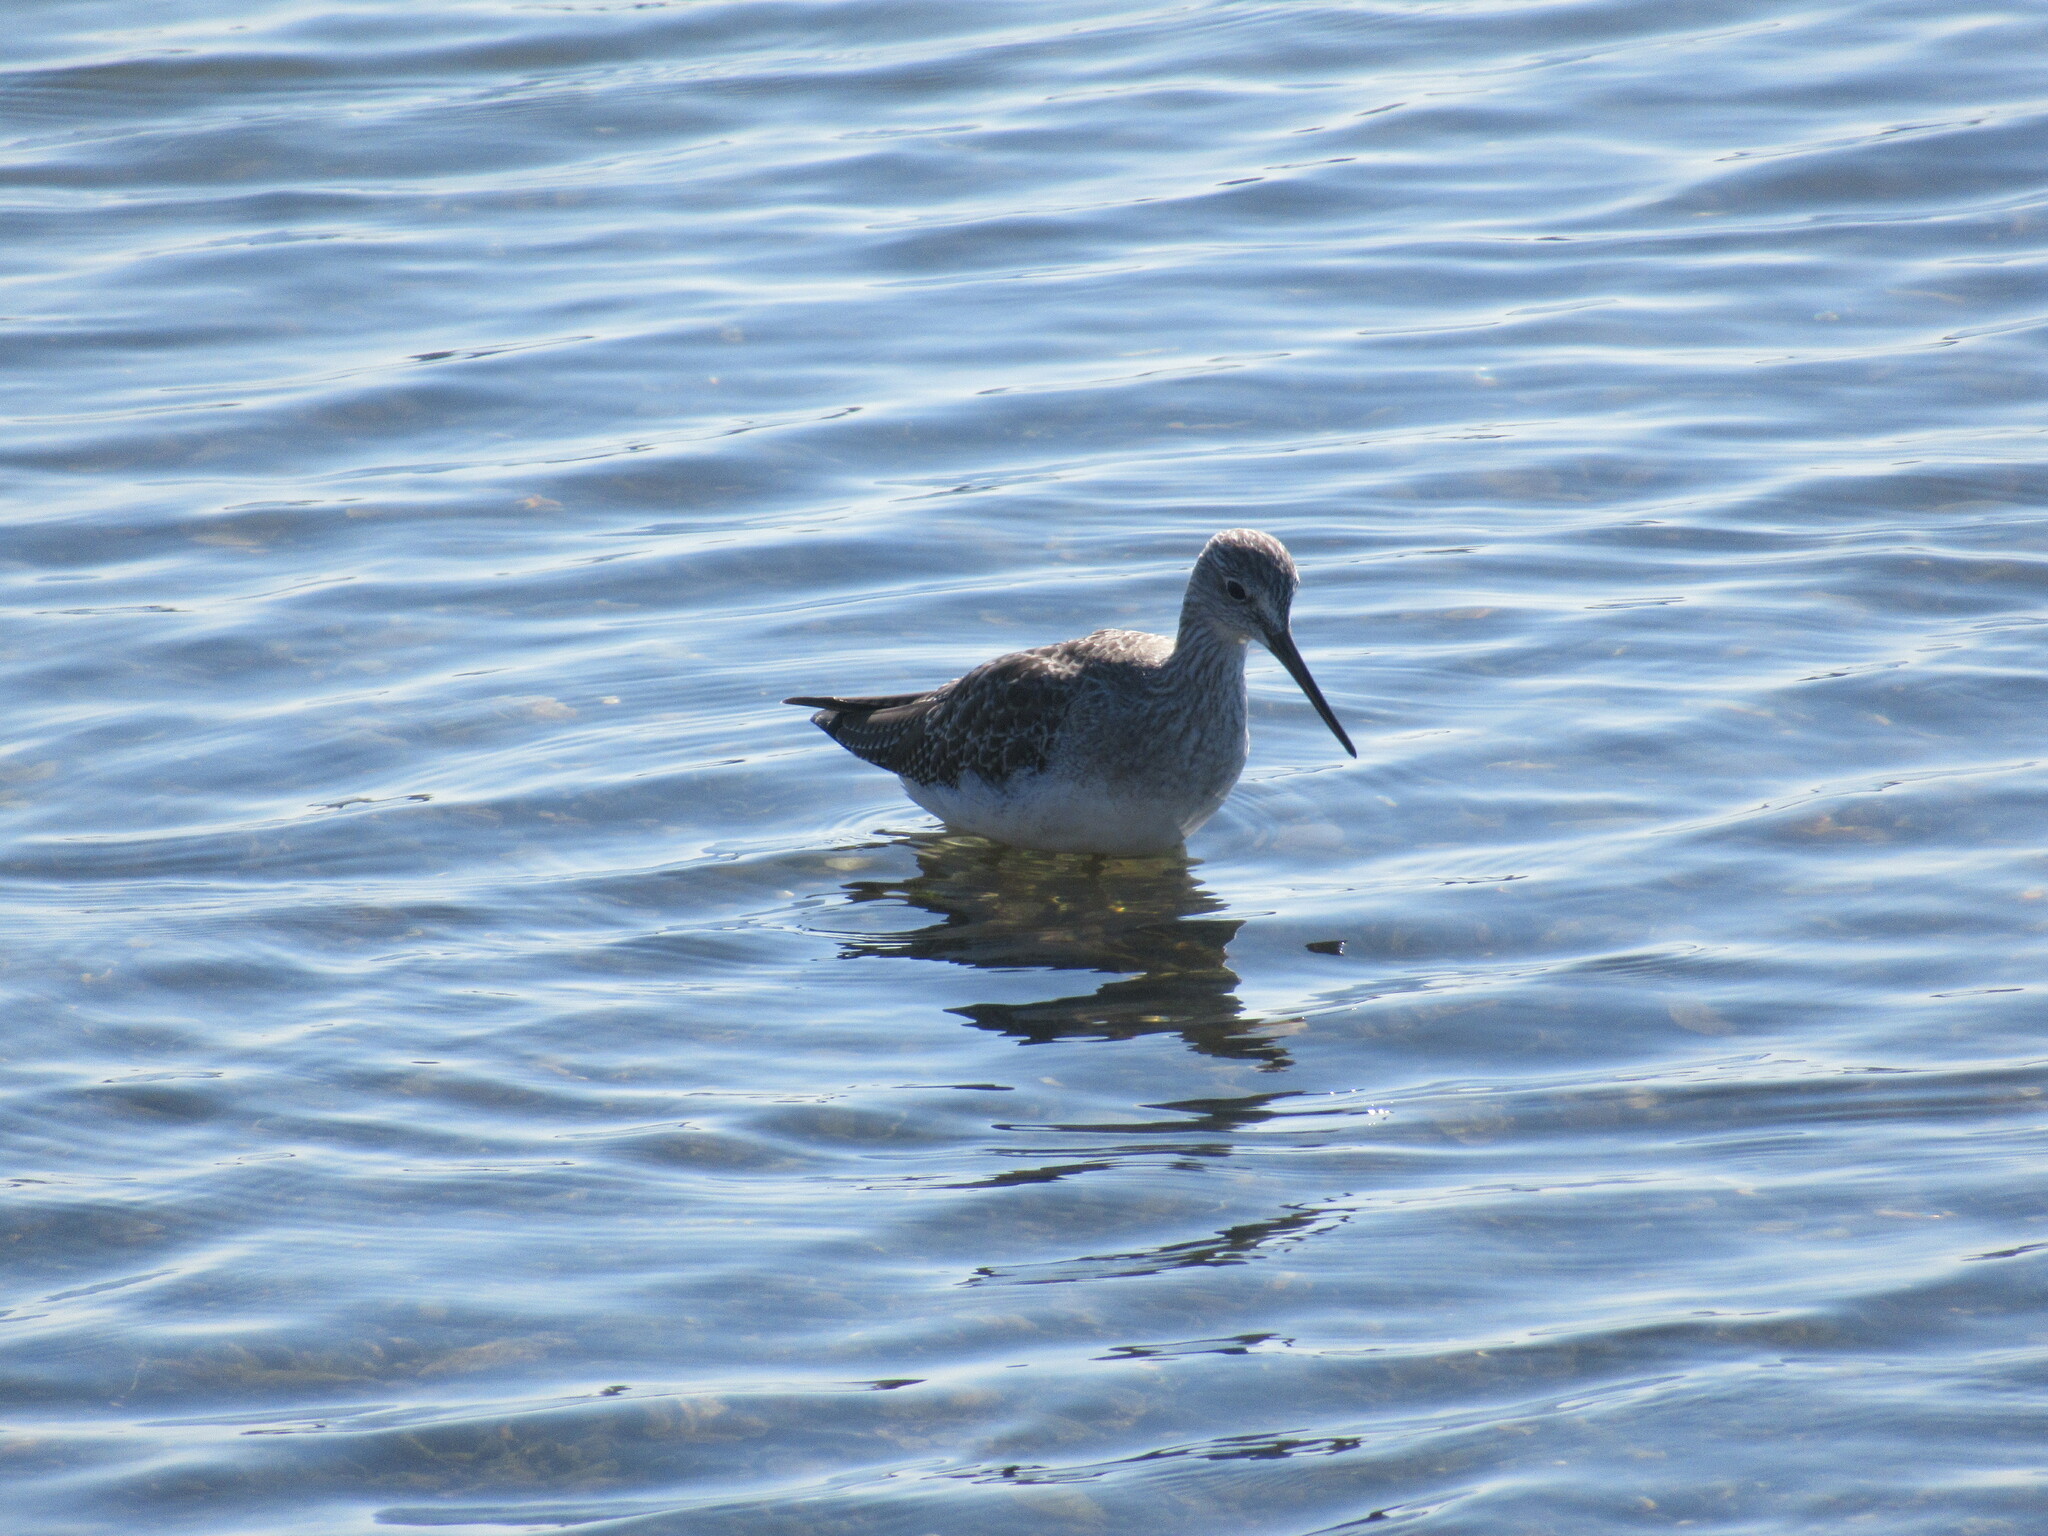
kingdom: Animalia
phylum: Chordata
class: Aves
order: Charadriiformes
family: Scolopacidae
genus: Tringa
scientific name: Tringa melanoleuca
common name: Greater yellowlegs
